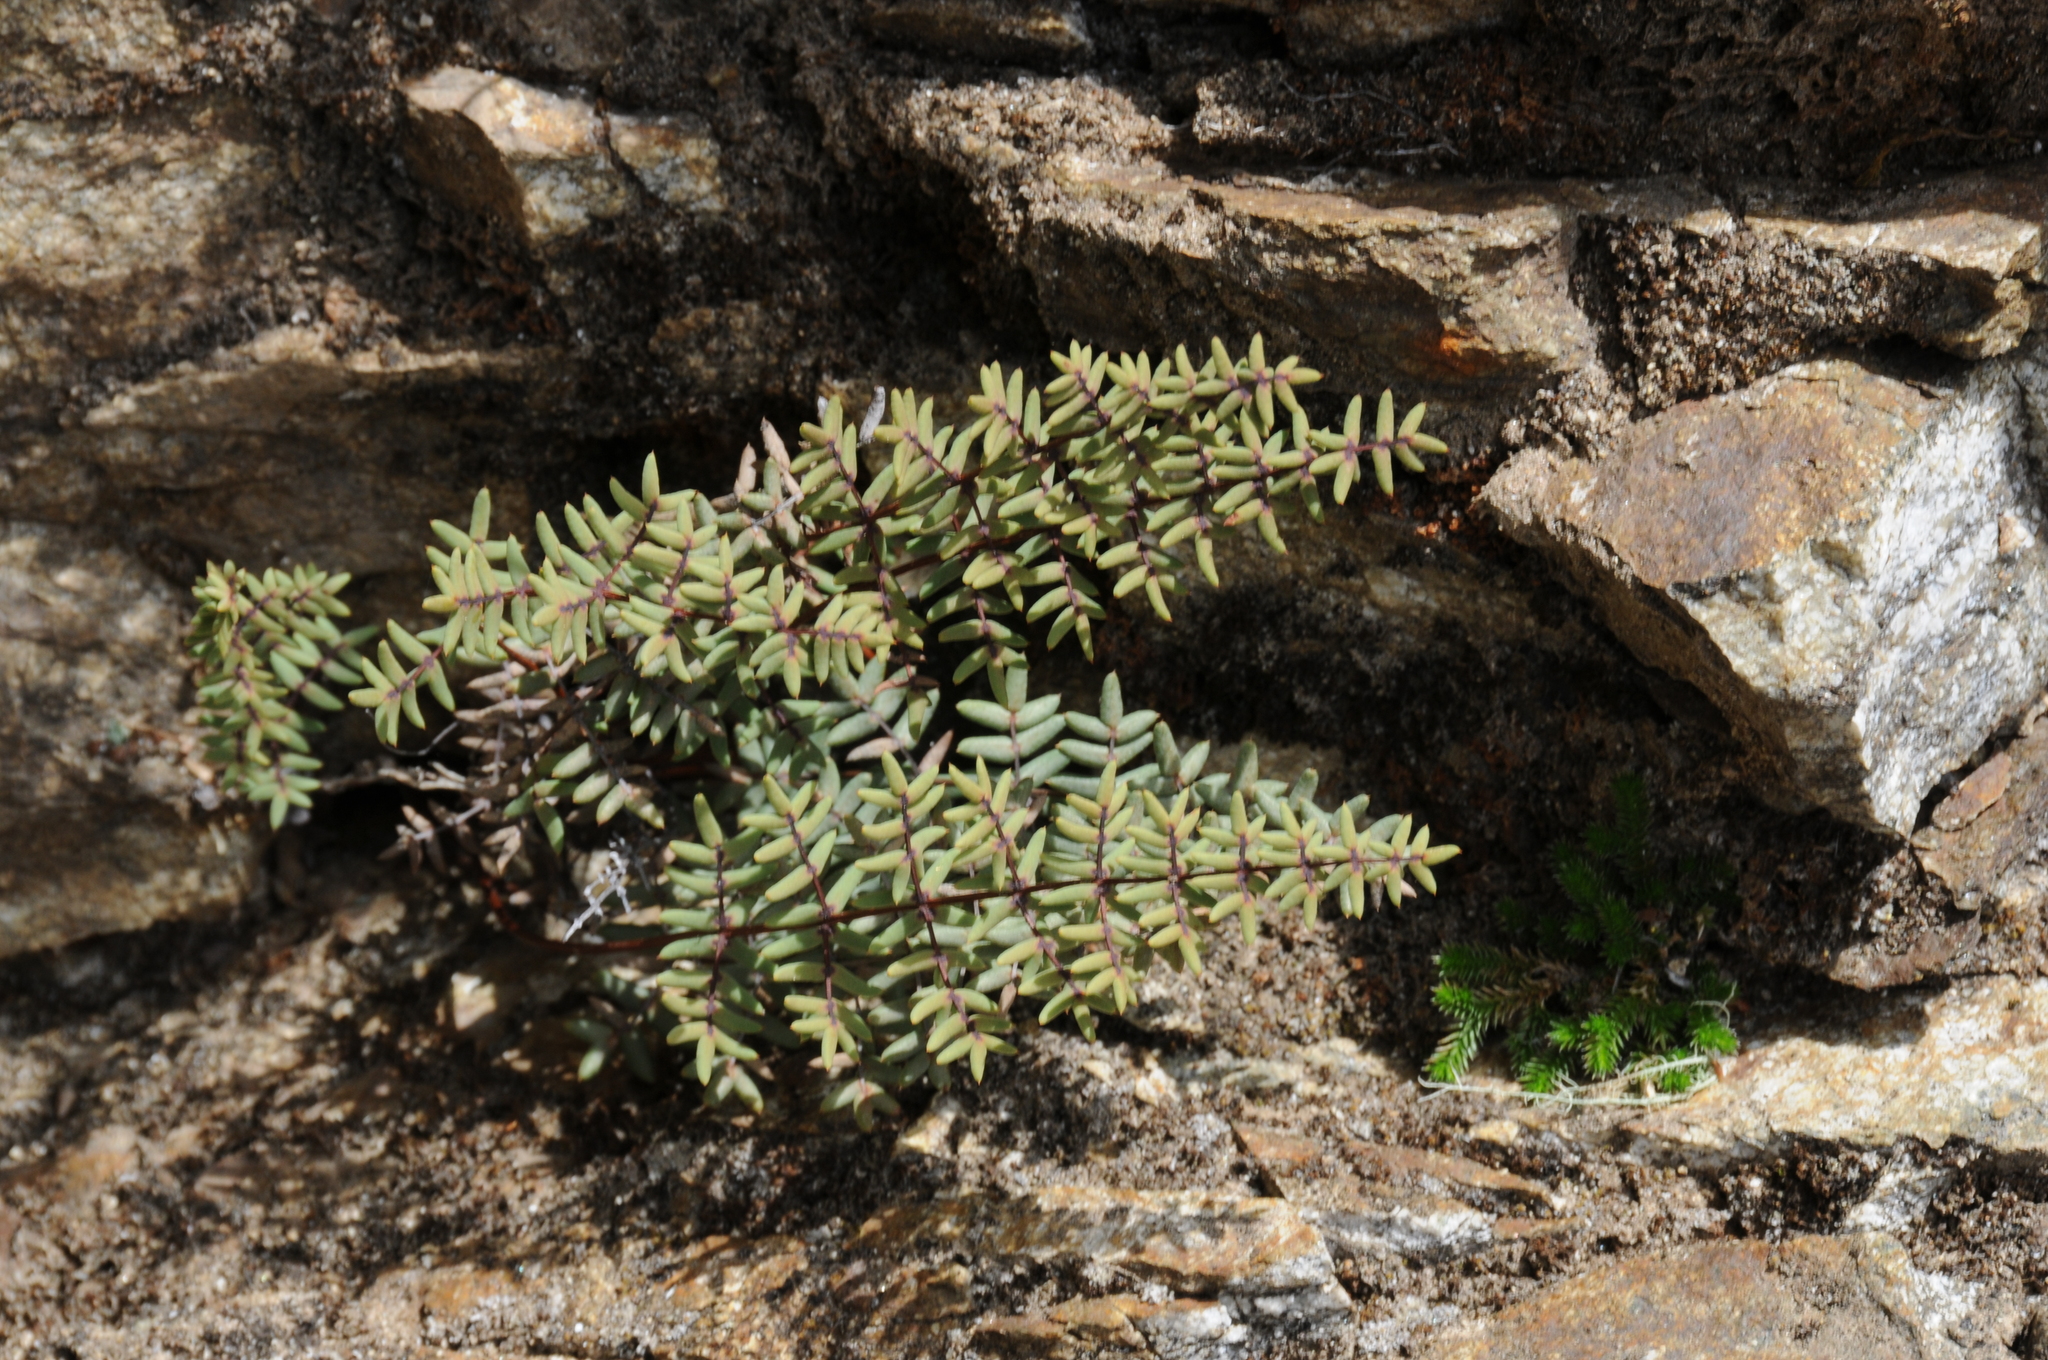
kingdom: Plantae
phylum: Tracheophyta
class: Polypodiopsida
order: Polypodiales
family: Pteridaceae
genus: Pellaea
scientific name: Pellaea mucronata
